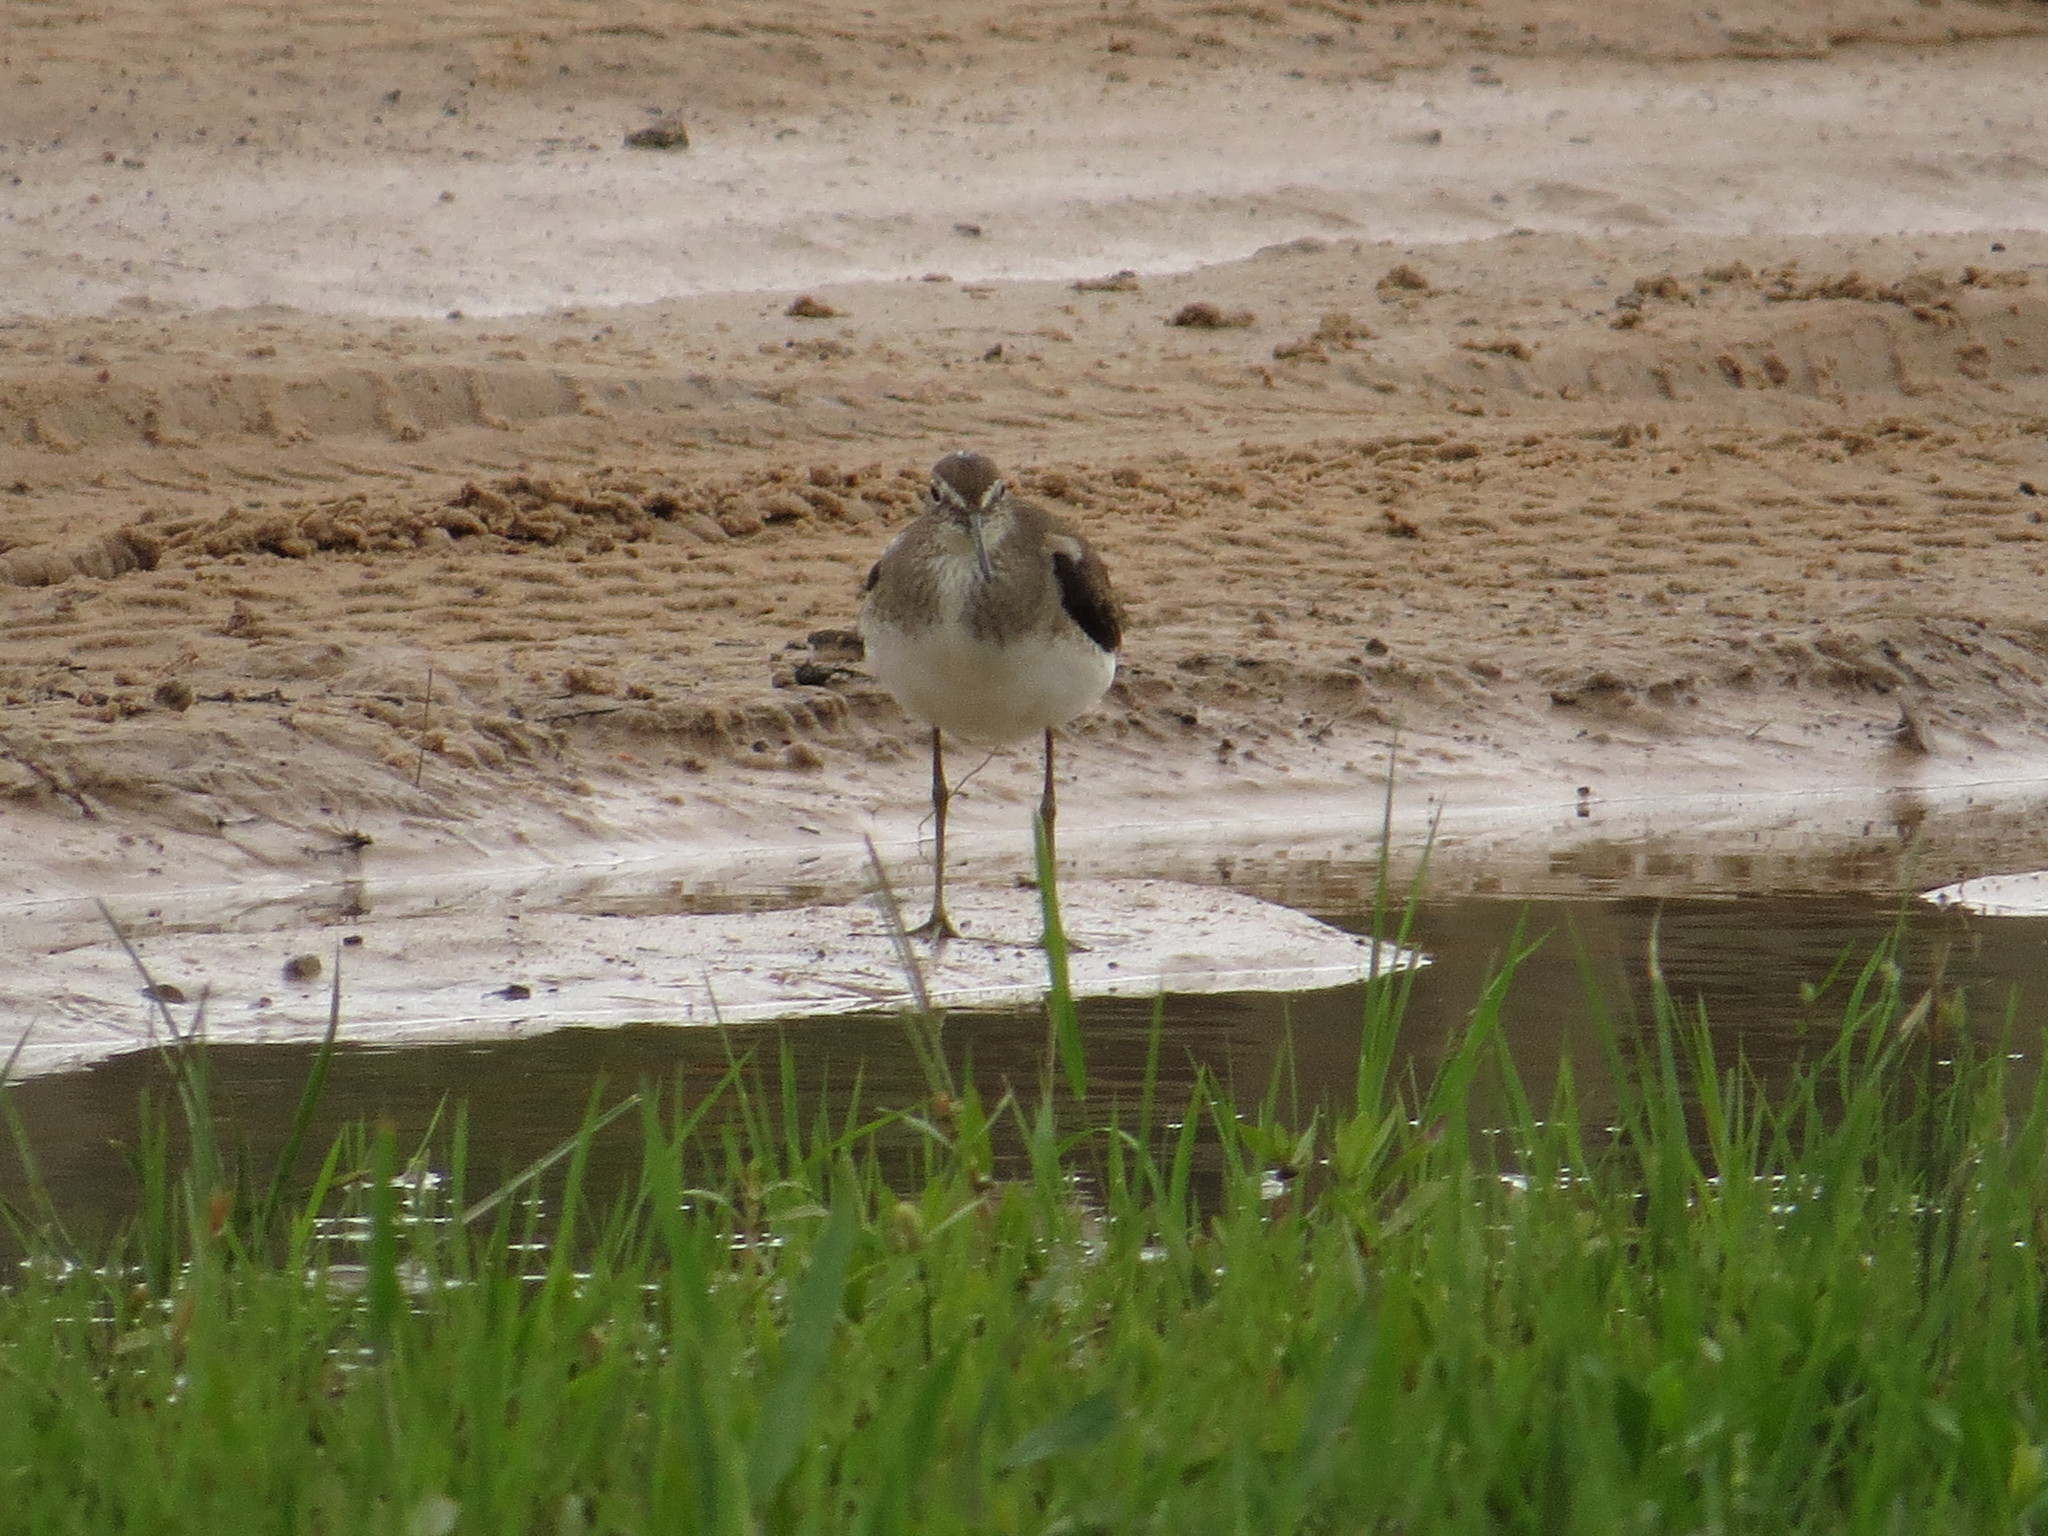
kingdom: Animalia
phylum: Chordata
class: Aves
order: Charadriiformes
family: Scolopacidae
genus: Tringa
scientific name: Tringa solitaria
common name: Solitary sandpiper
